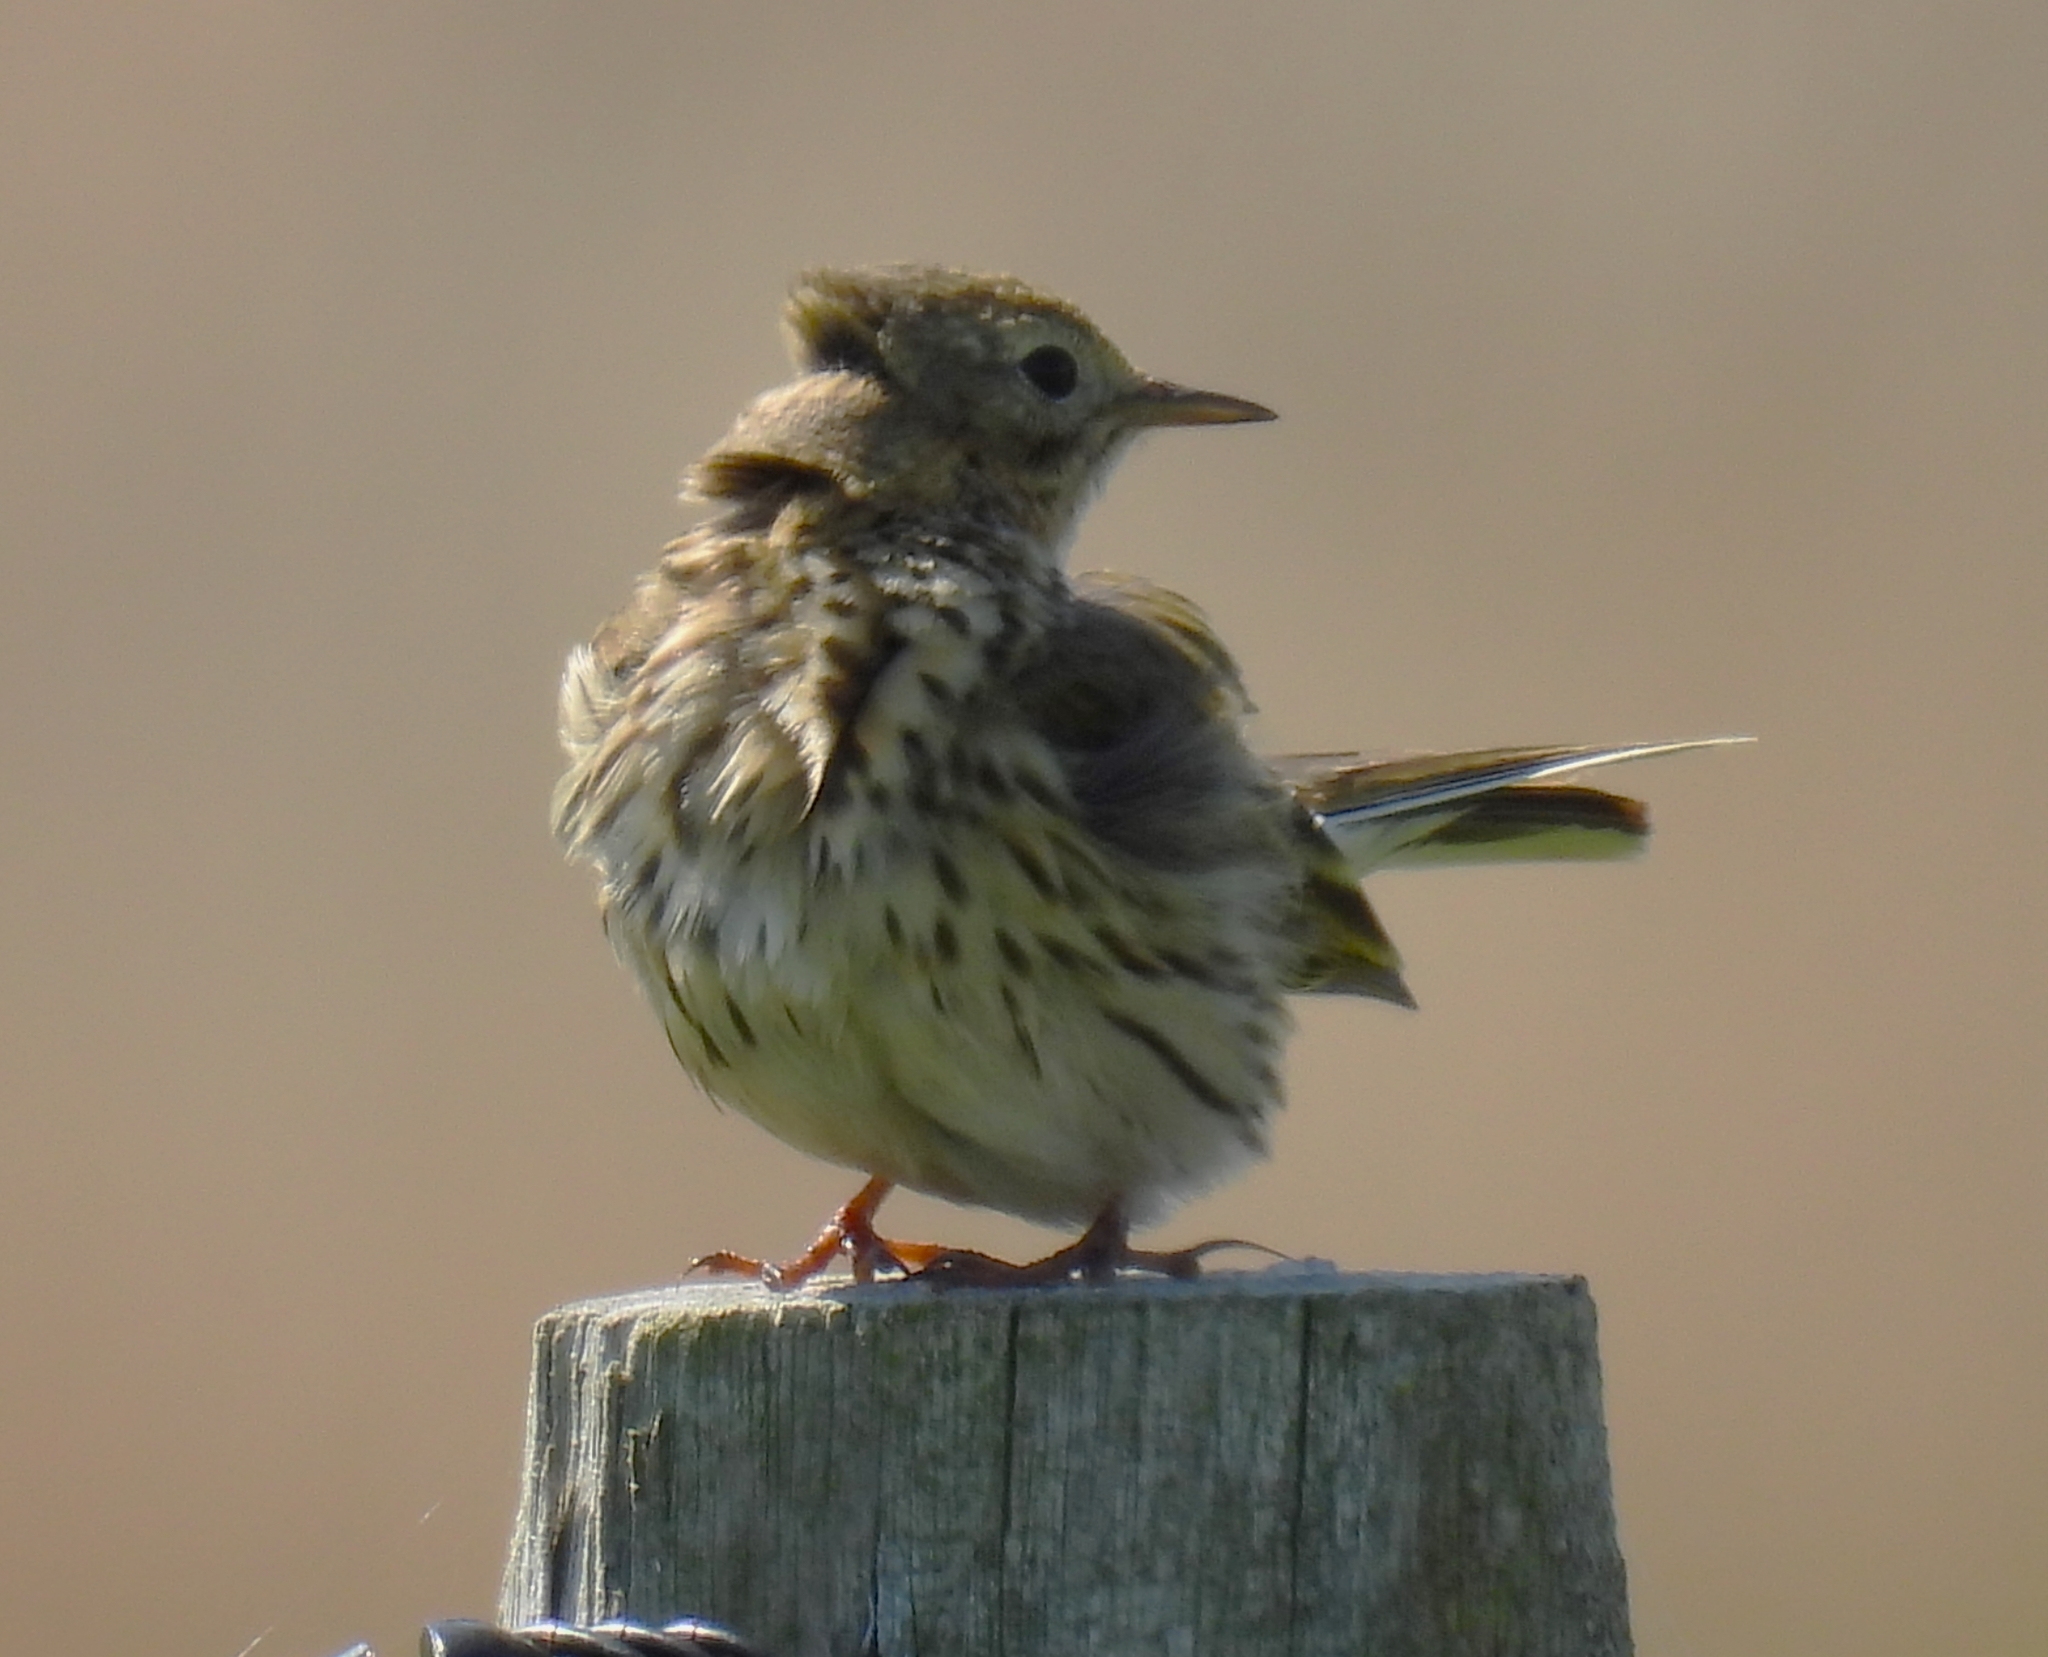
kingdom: Animalia
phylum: Chordata
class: Aves
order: Passeriformes
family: Motacillidae
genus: Anthus
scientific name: Anthus pratensis
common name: Meadow pipit
